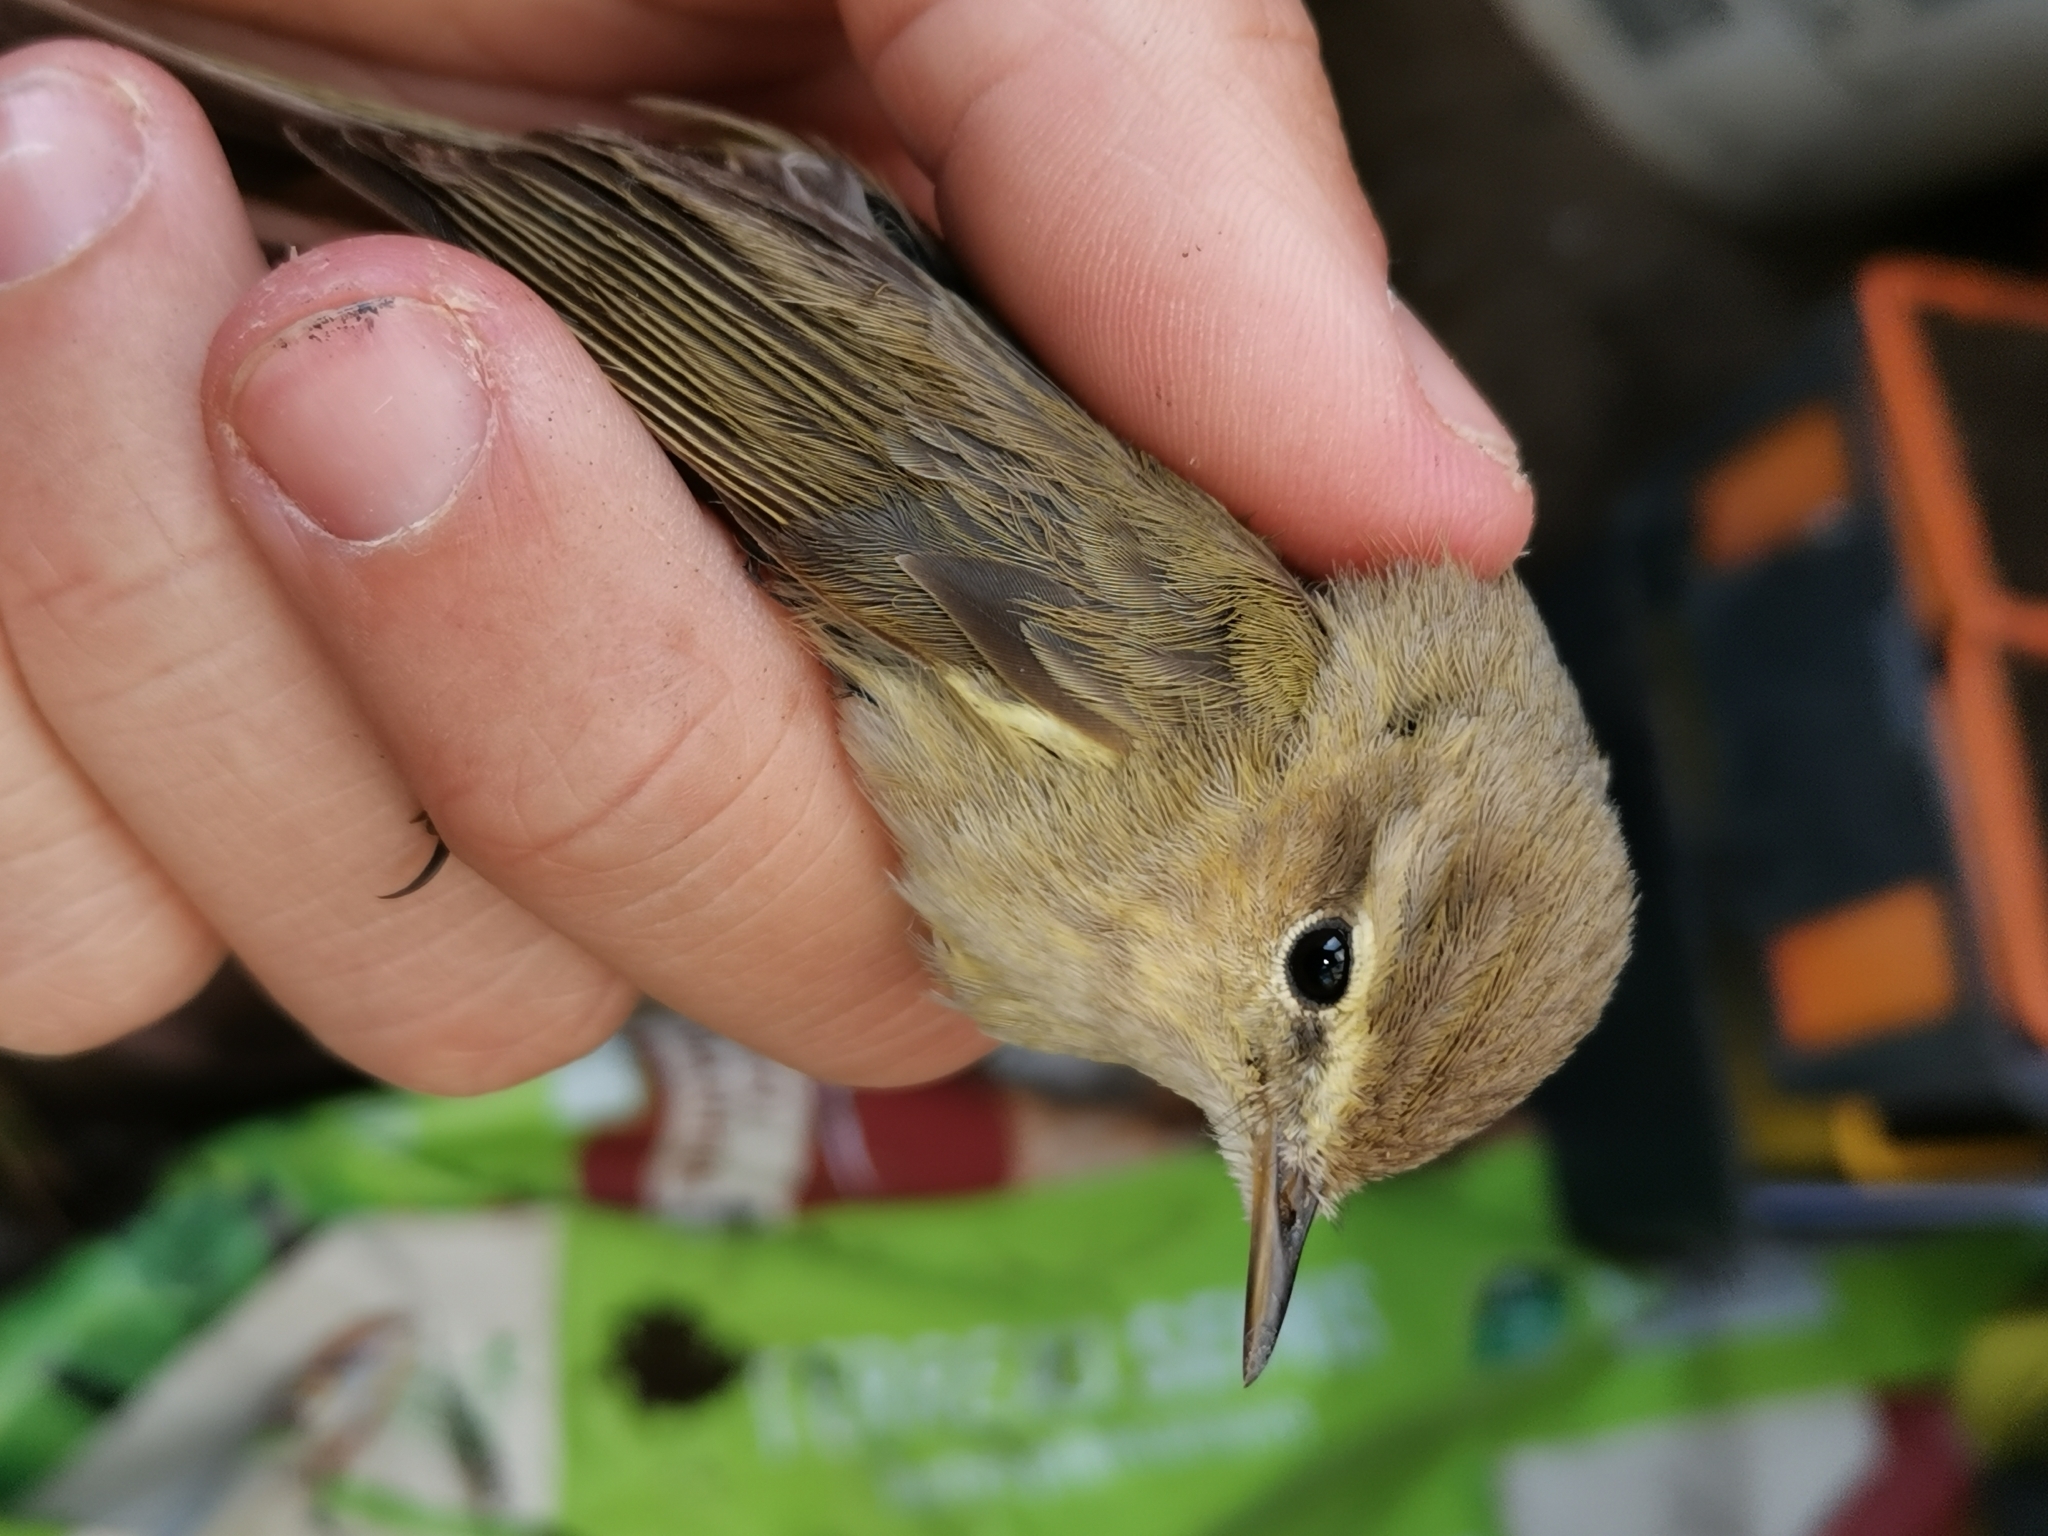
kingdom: Animalia
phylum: Chordata
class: Aves
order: Passeriformes
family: Phylloscopidae
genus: Phylloscopus
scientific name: Phylloscopus collybita
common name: Common chiffchaff
